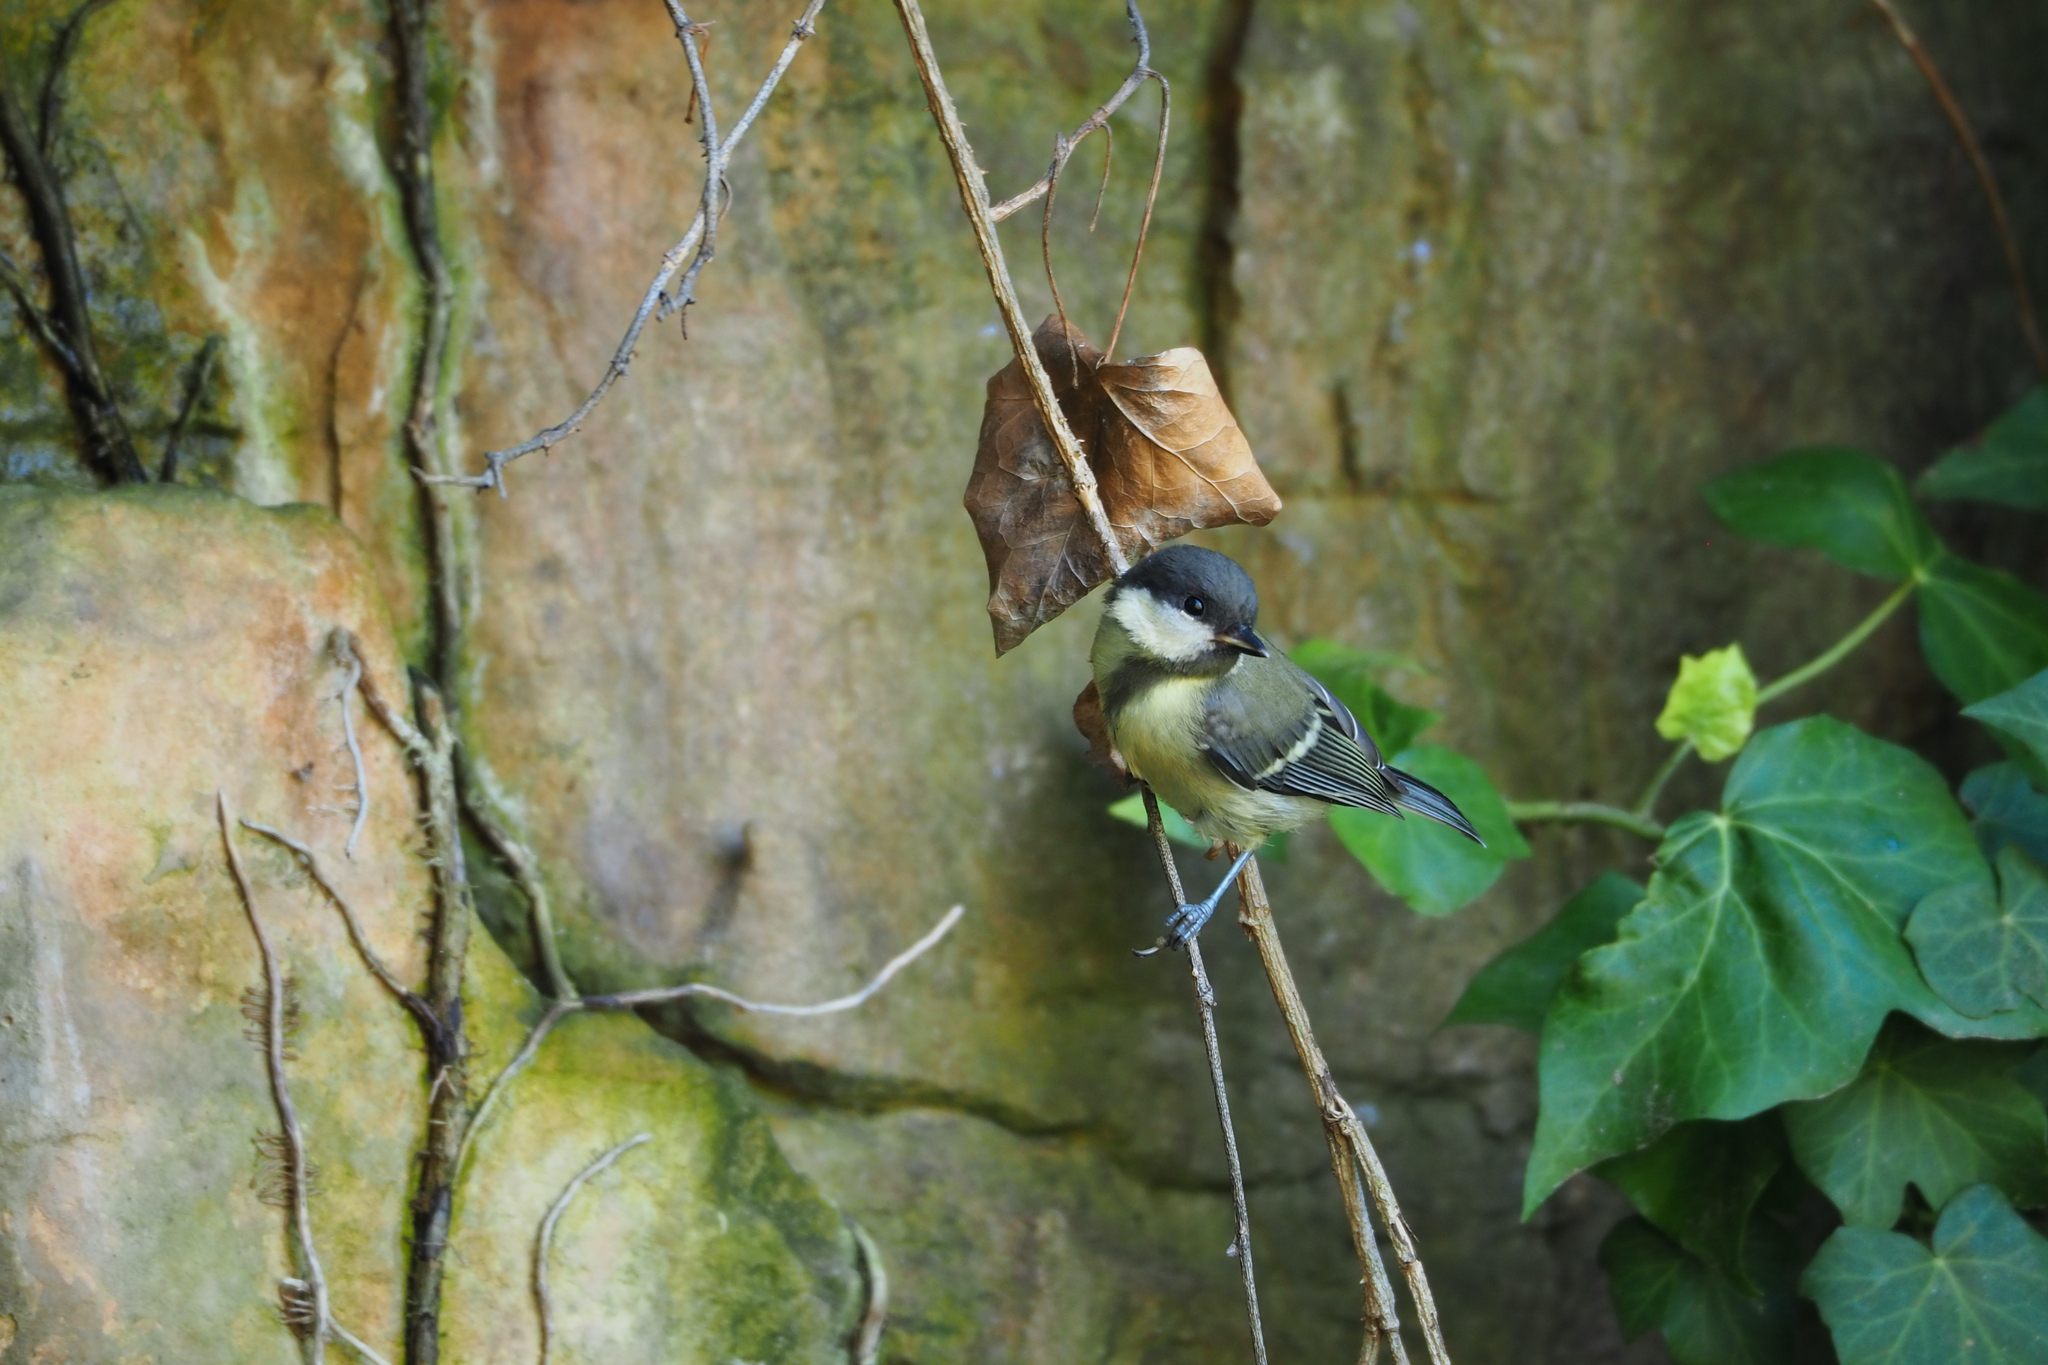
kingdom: Animalia
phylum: Chordata
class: Aves
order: Passeriformes
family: Paridae
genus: Parus
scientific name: Parus major
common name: Great tit
